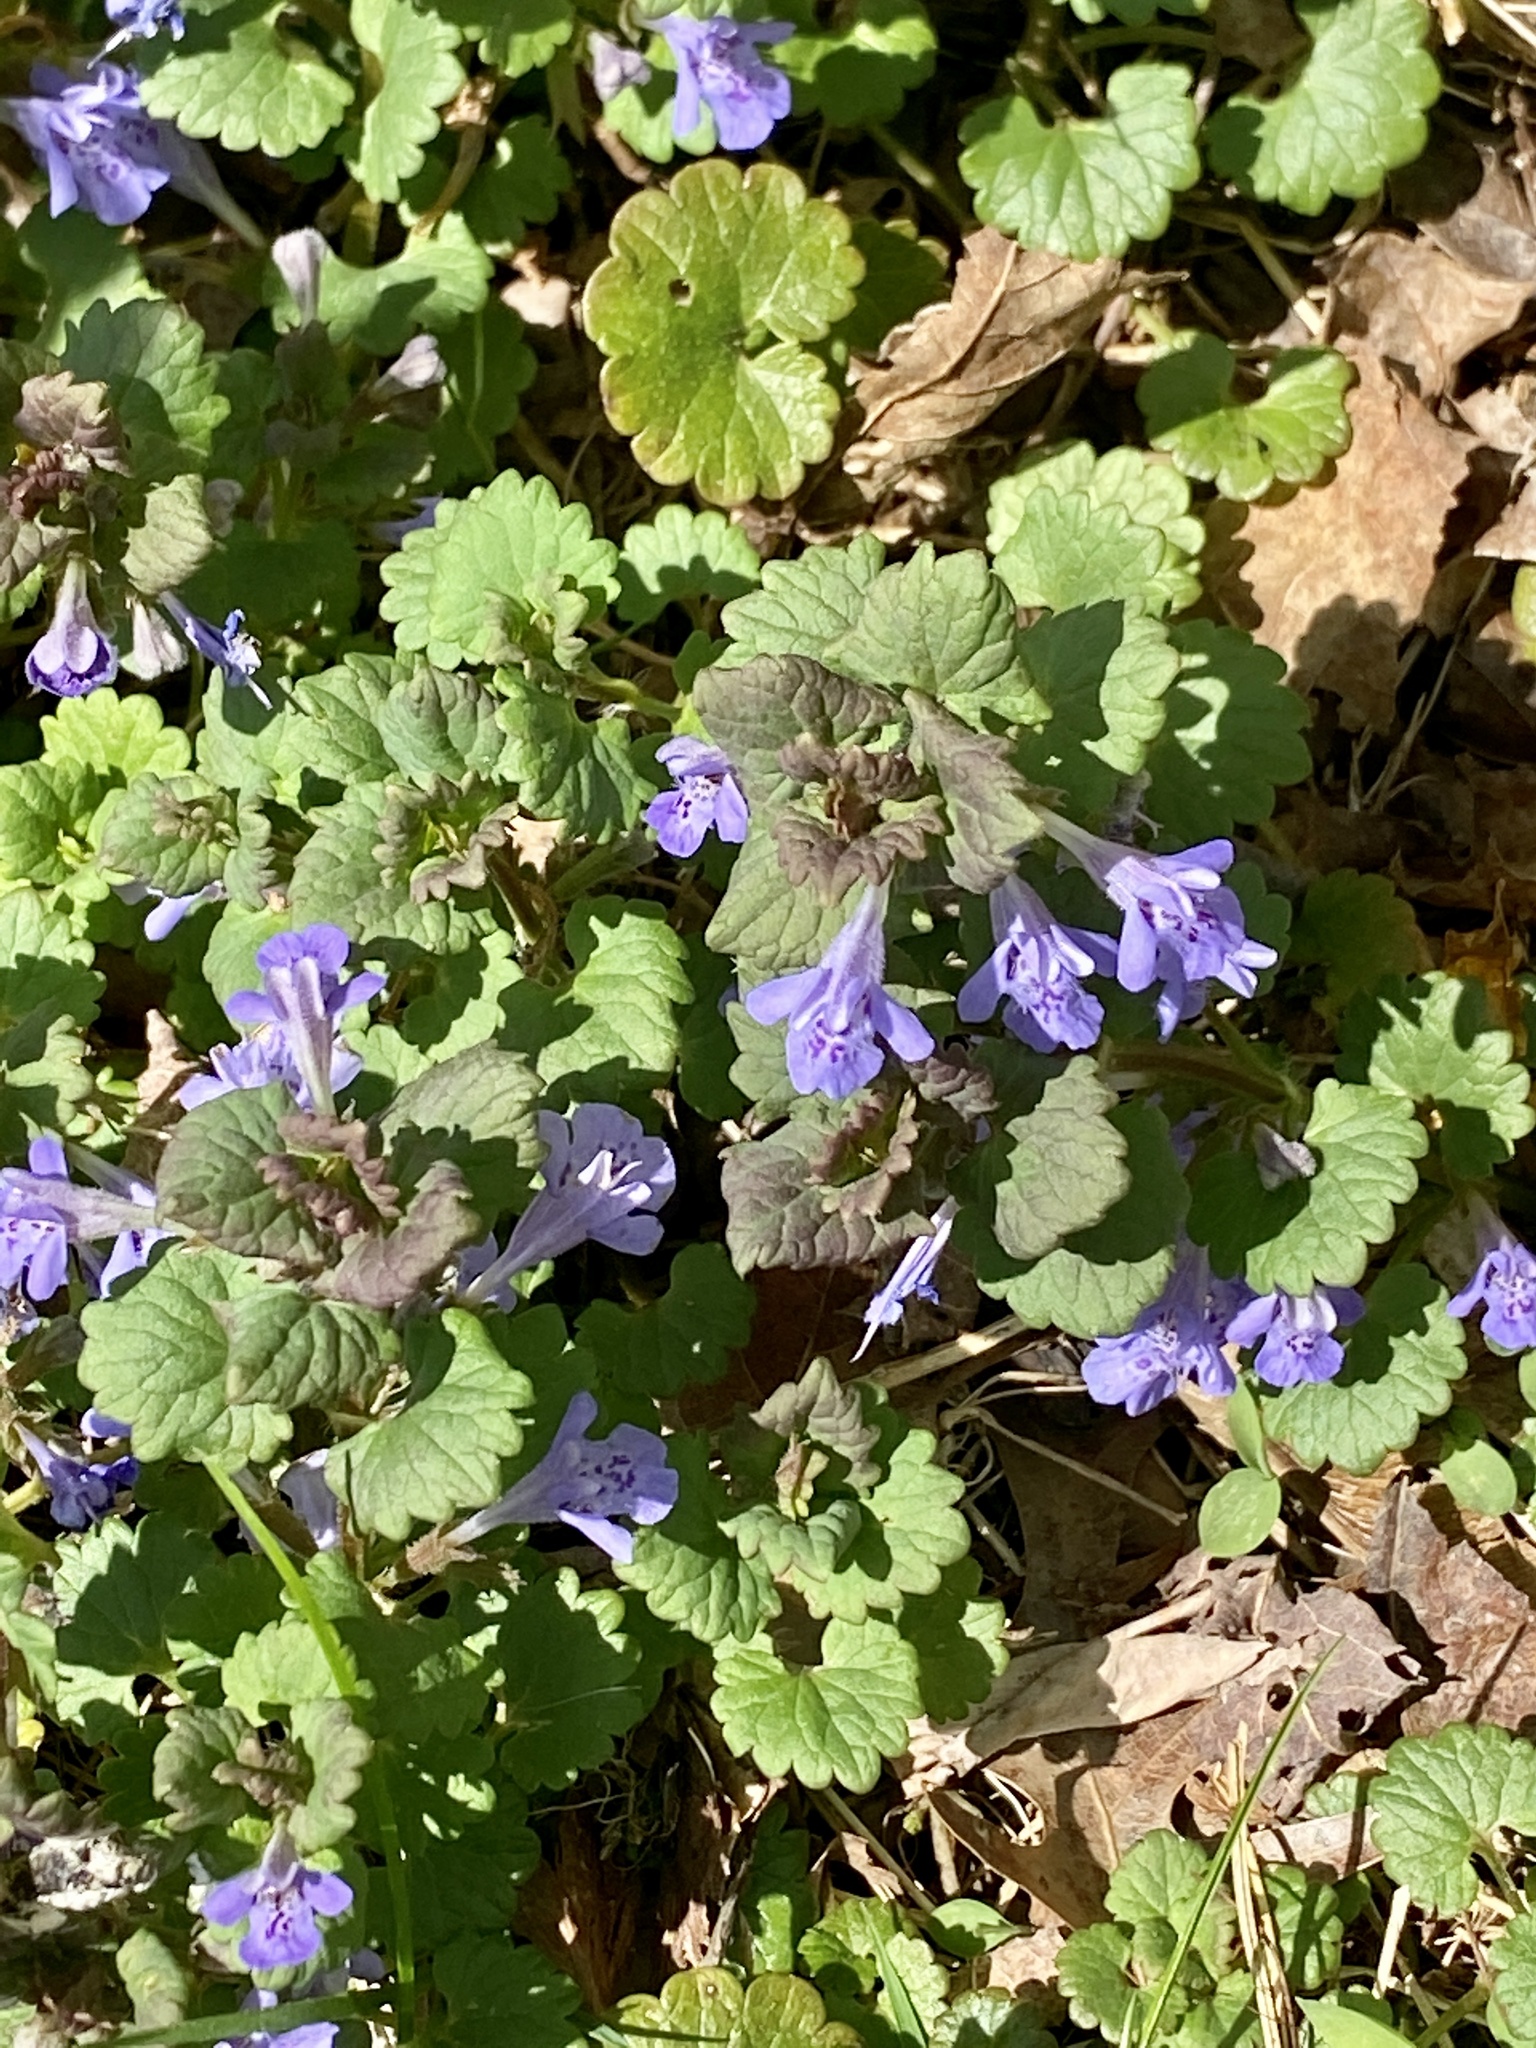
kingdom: Plantae
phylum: Tracheophyta
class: Magnoliopsida
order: Lamiales
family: Lamiaceae
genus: Glechoma
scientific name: Glechoma hederacea
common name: Ground ivy
